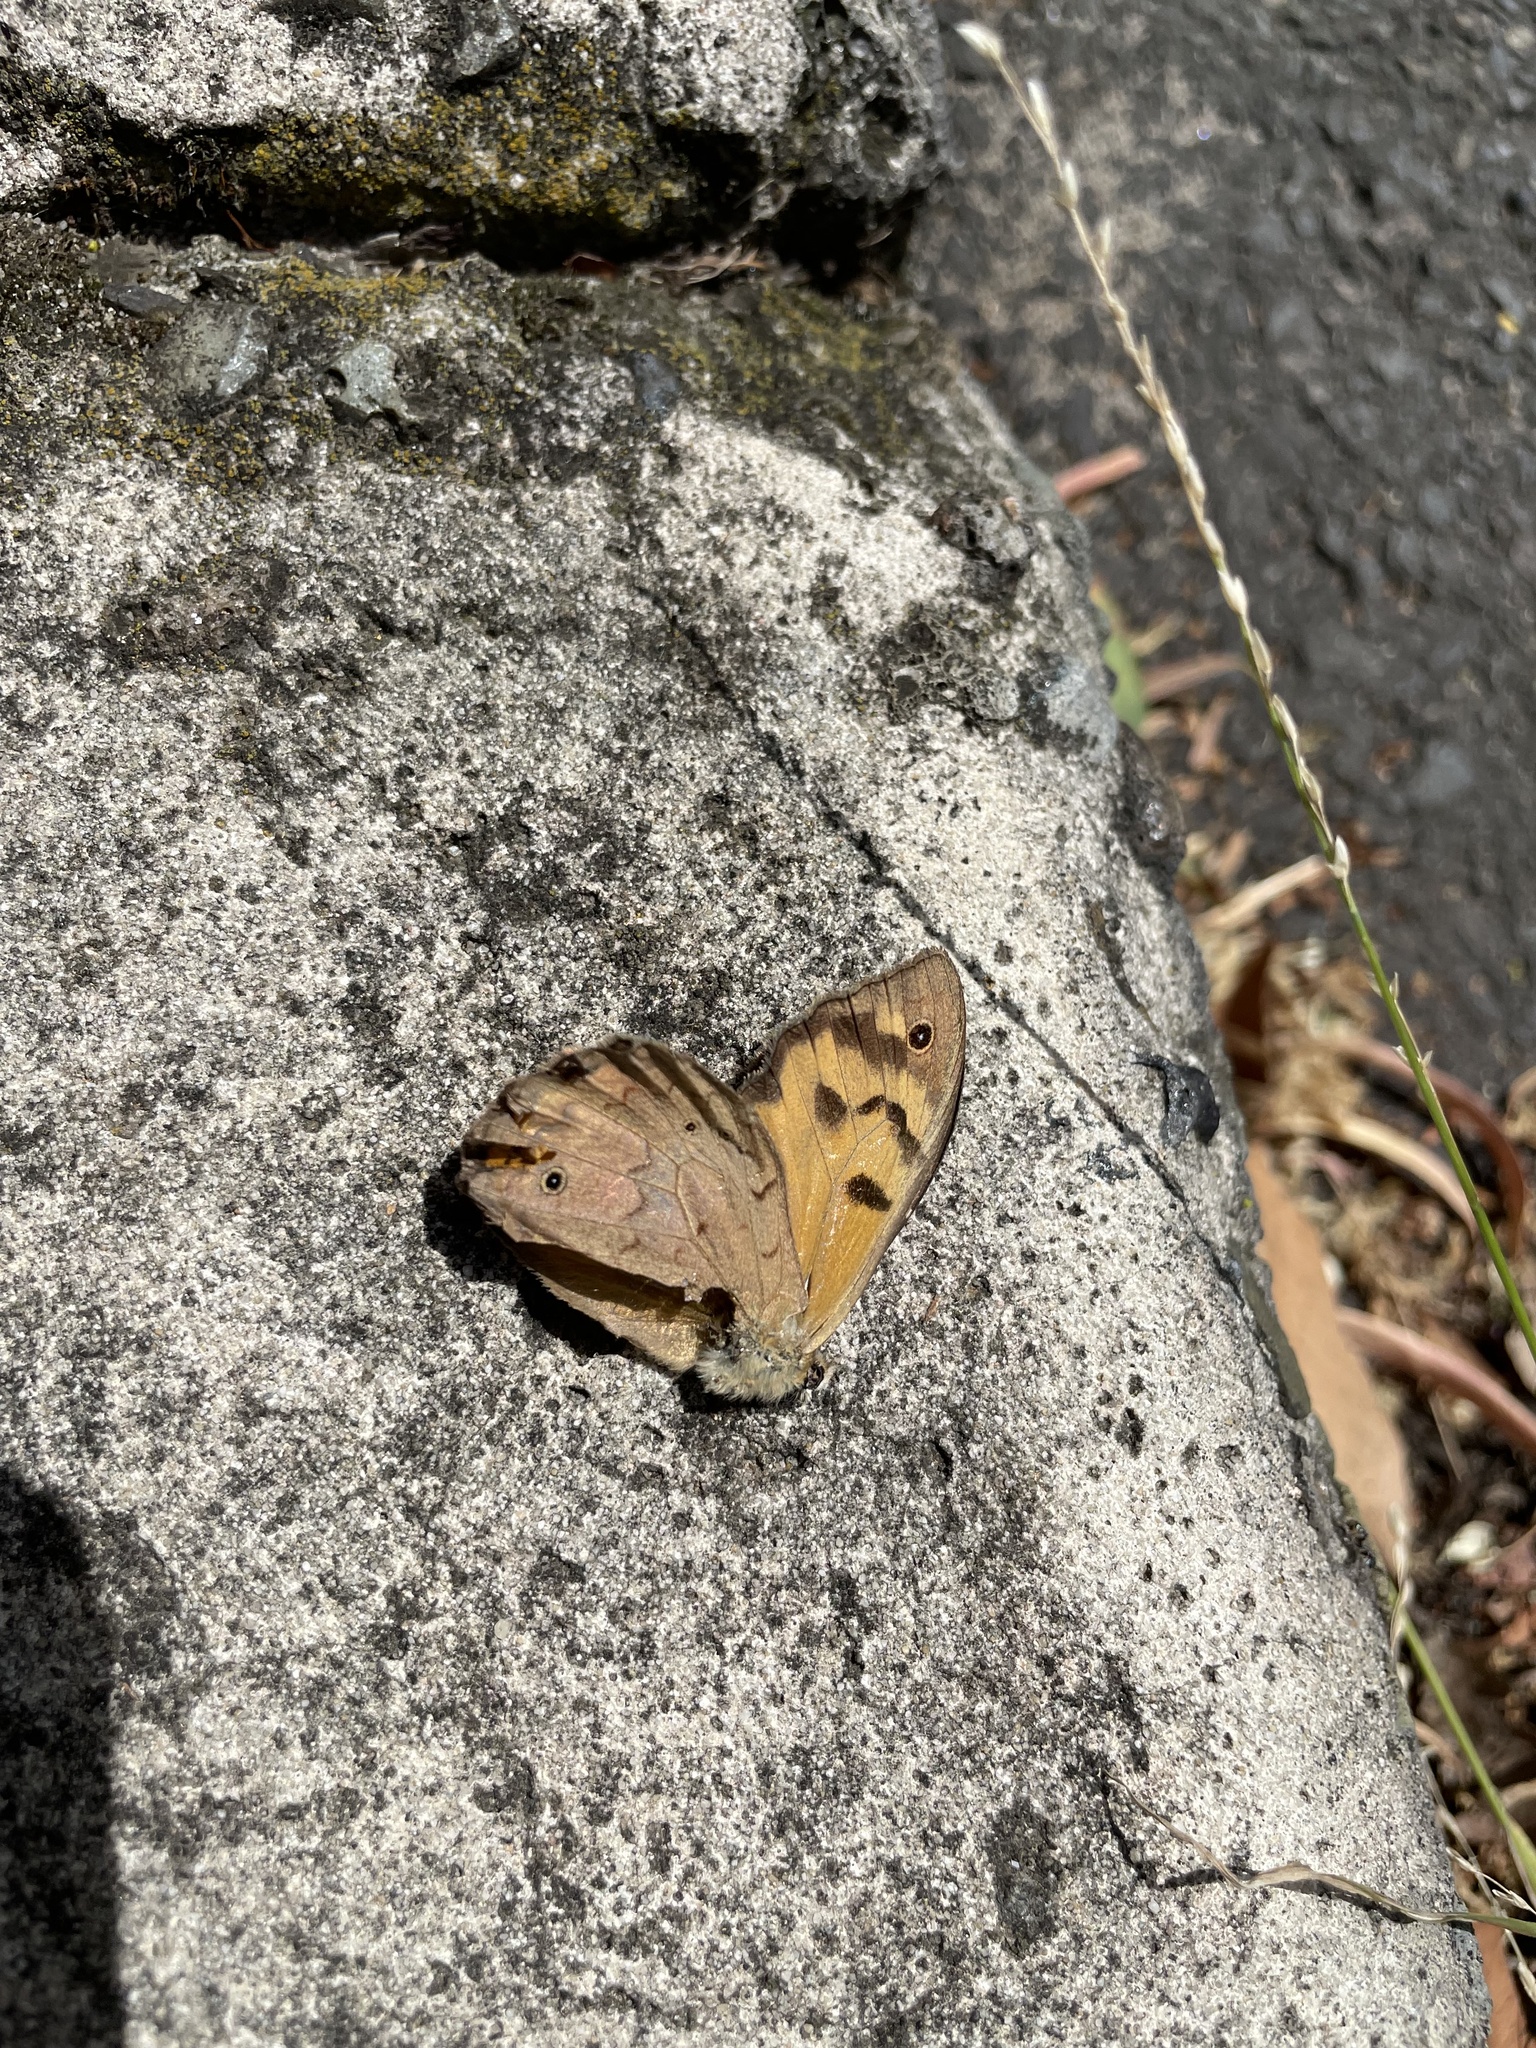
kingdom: Animalia
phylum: Arthropoda
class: Insecta
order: Lepidoptera
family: Nymphalidae
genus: Heteronympha
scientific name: Heteronympha merope
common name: Common brown
